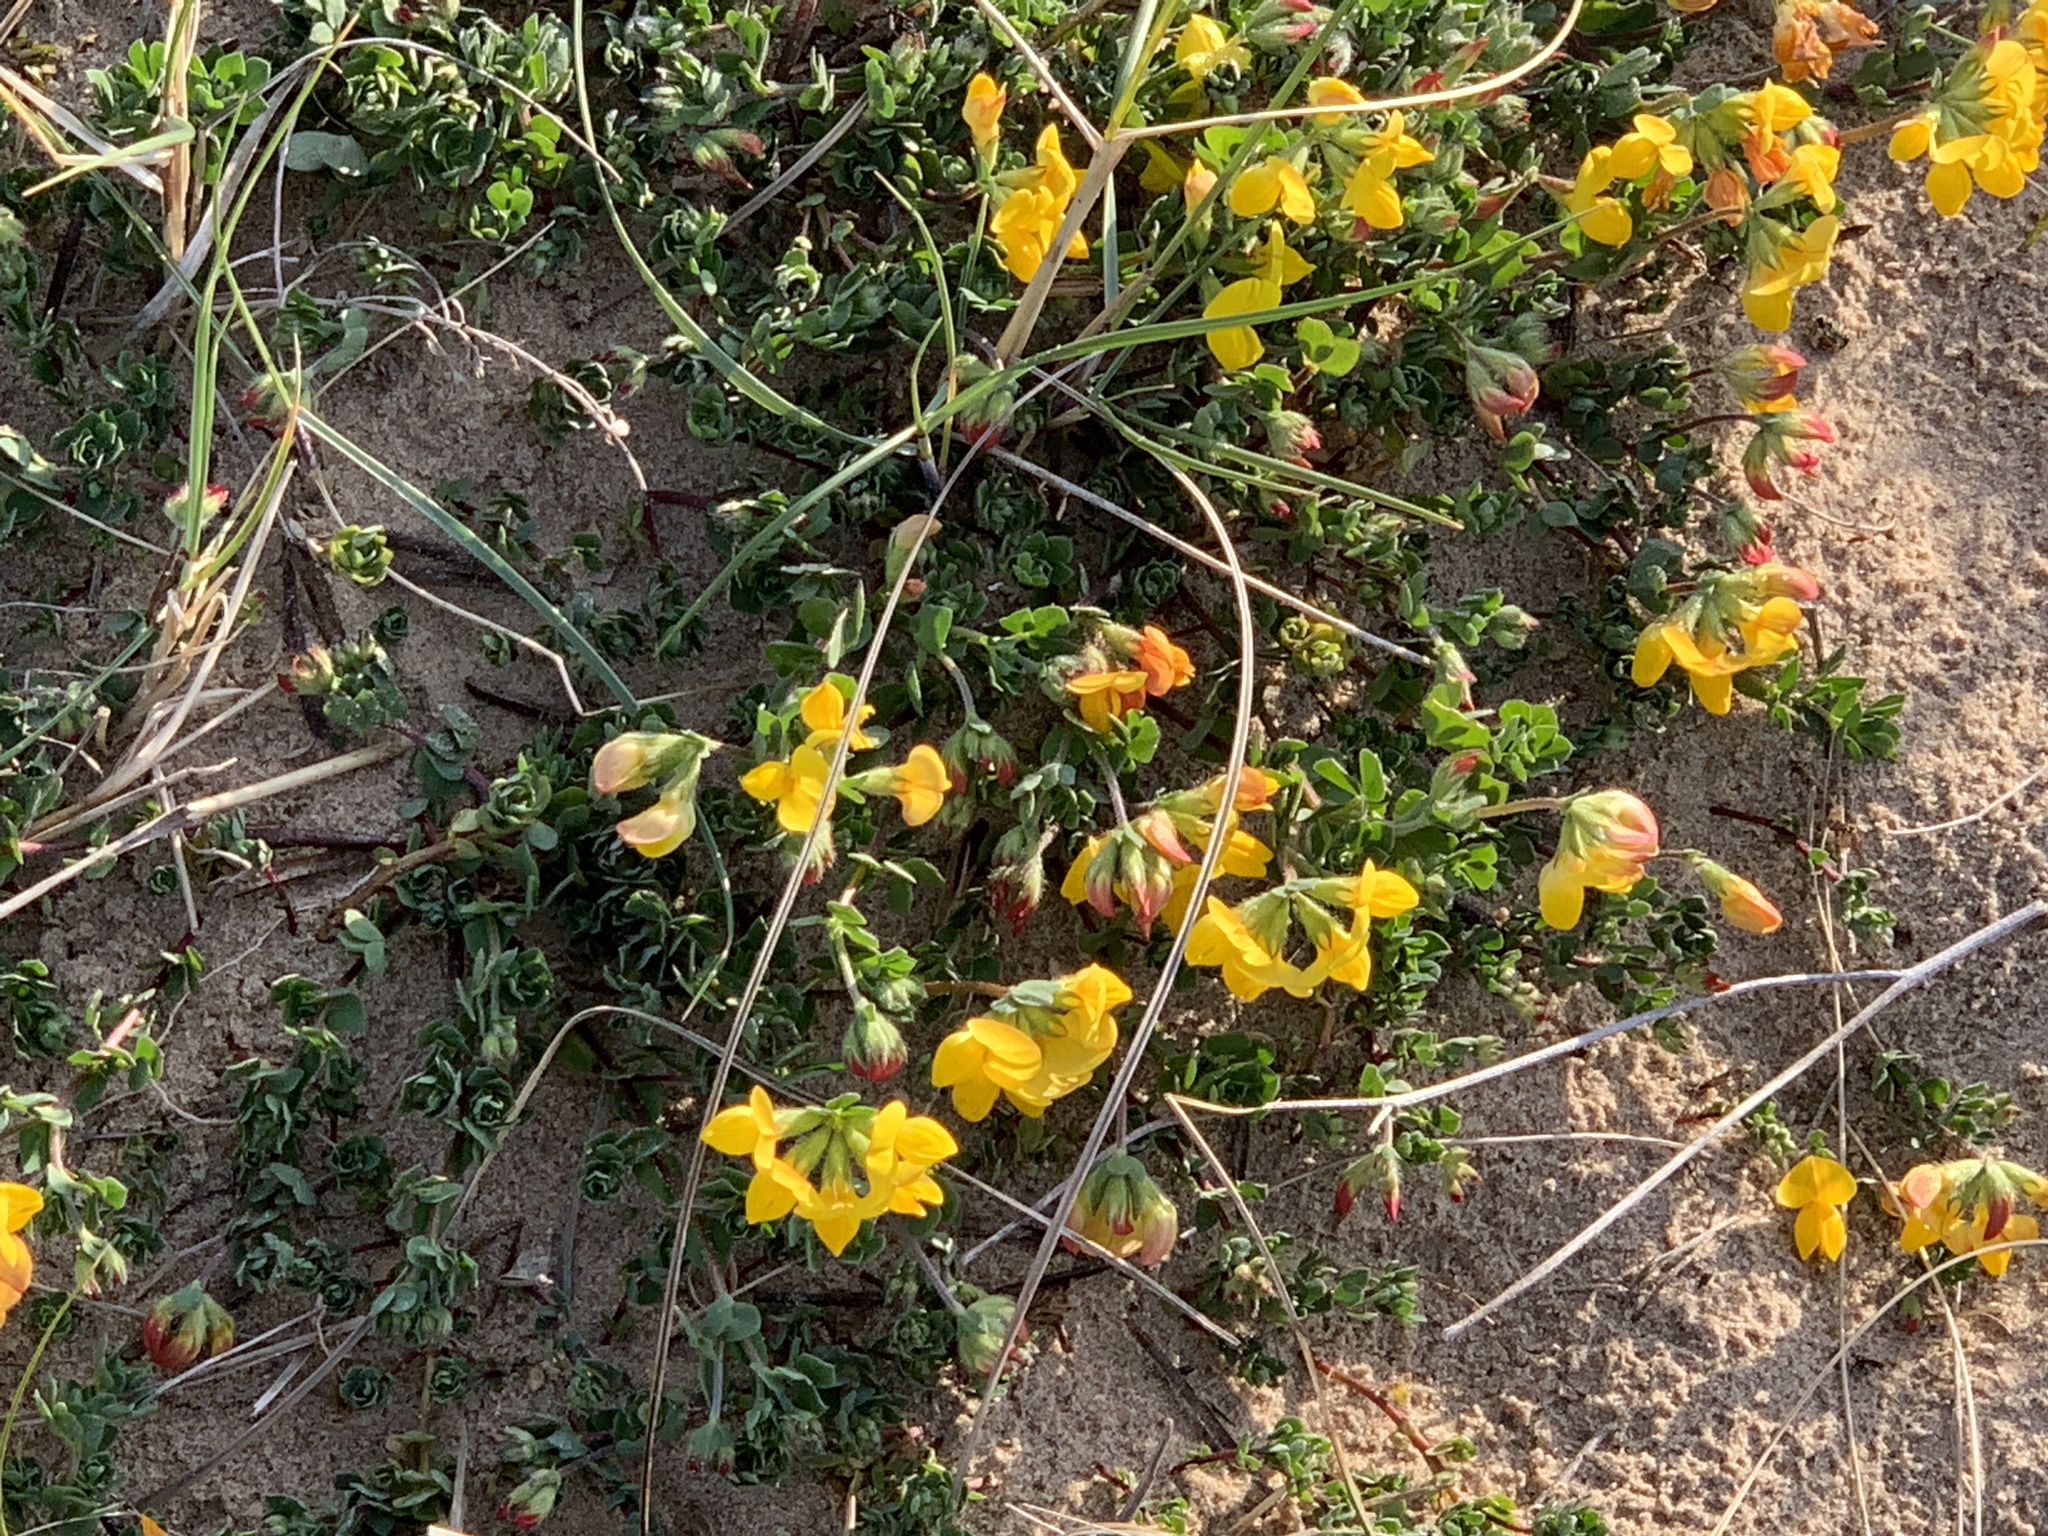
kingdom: Plantae
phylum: Tracheophyta
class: Magnoliopsida
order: Fabales
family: Fabaceae
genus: Lotus
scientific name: Lotus corniculatus
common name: Common bird's-foot-trefoil
